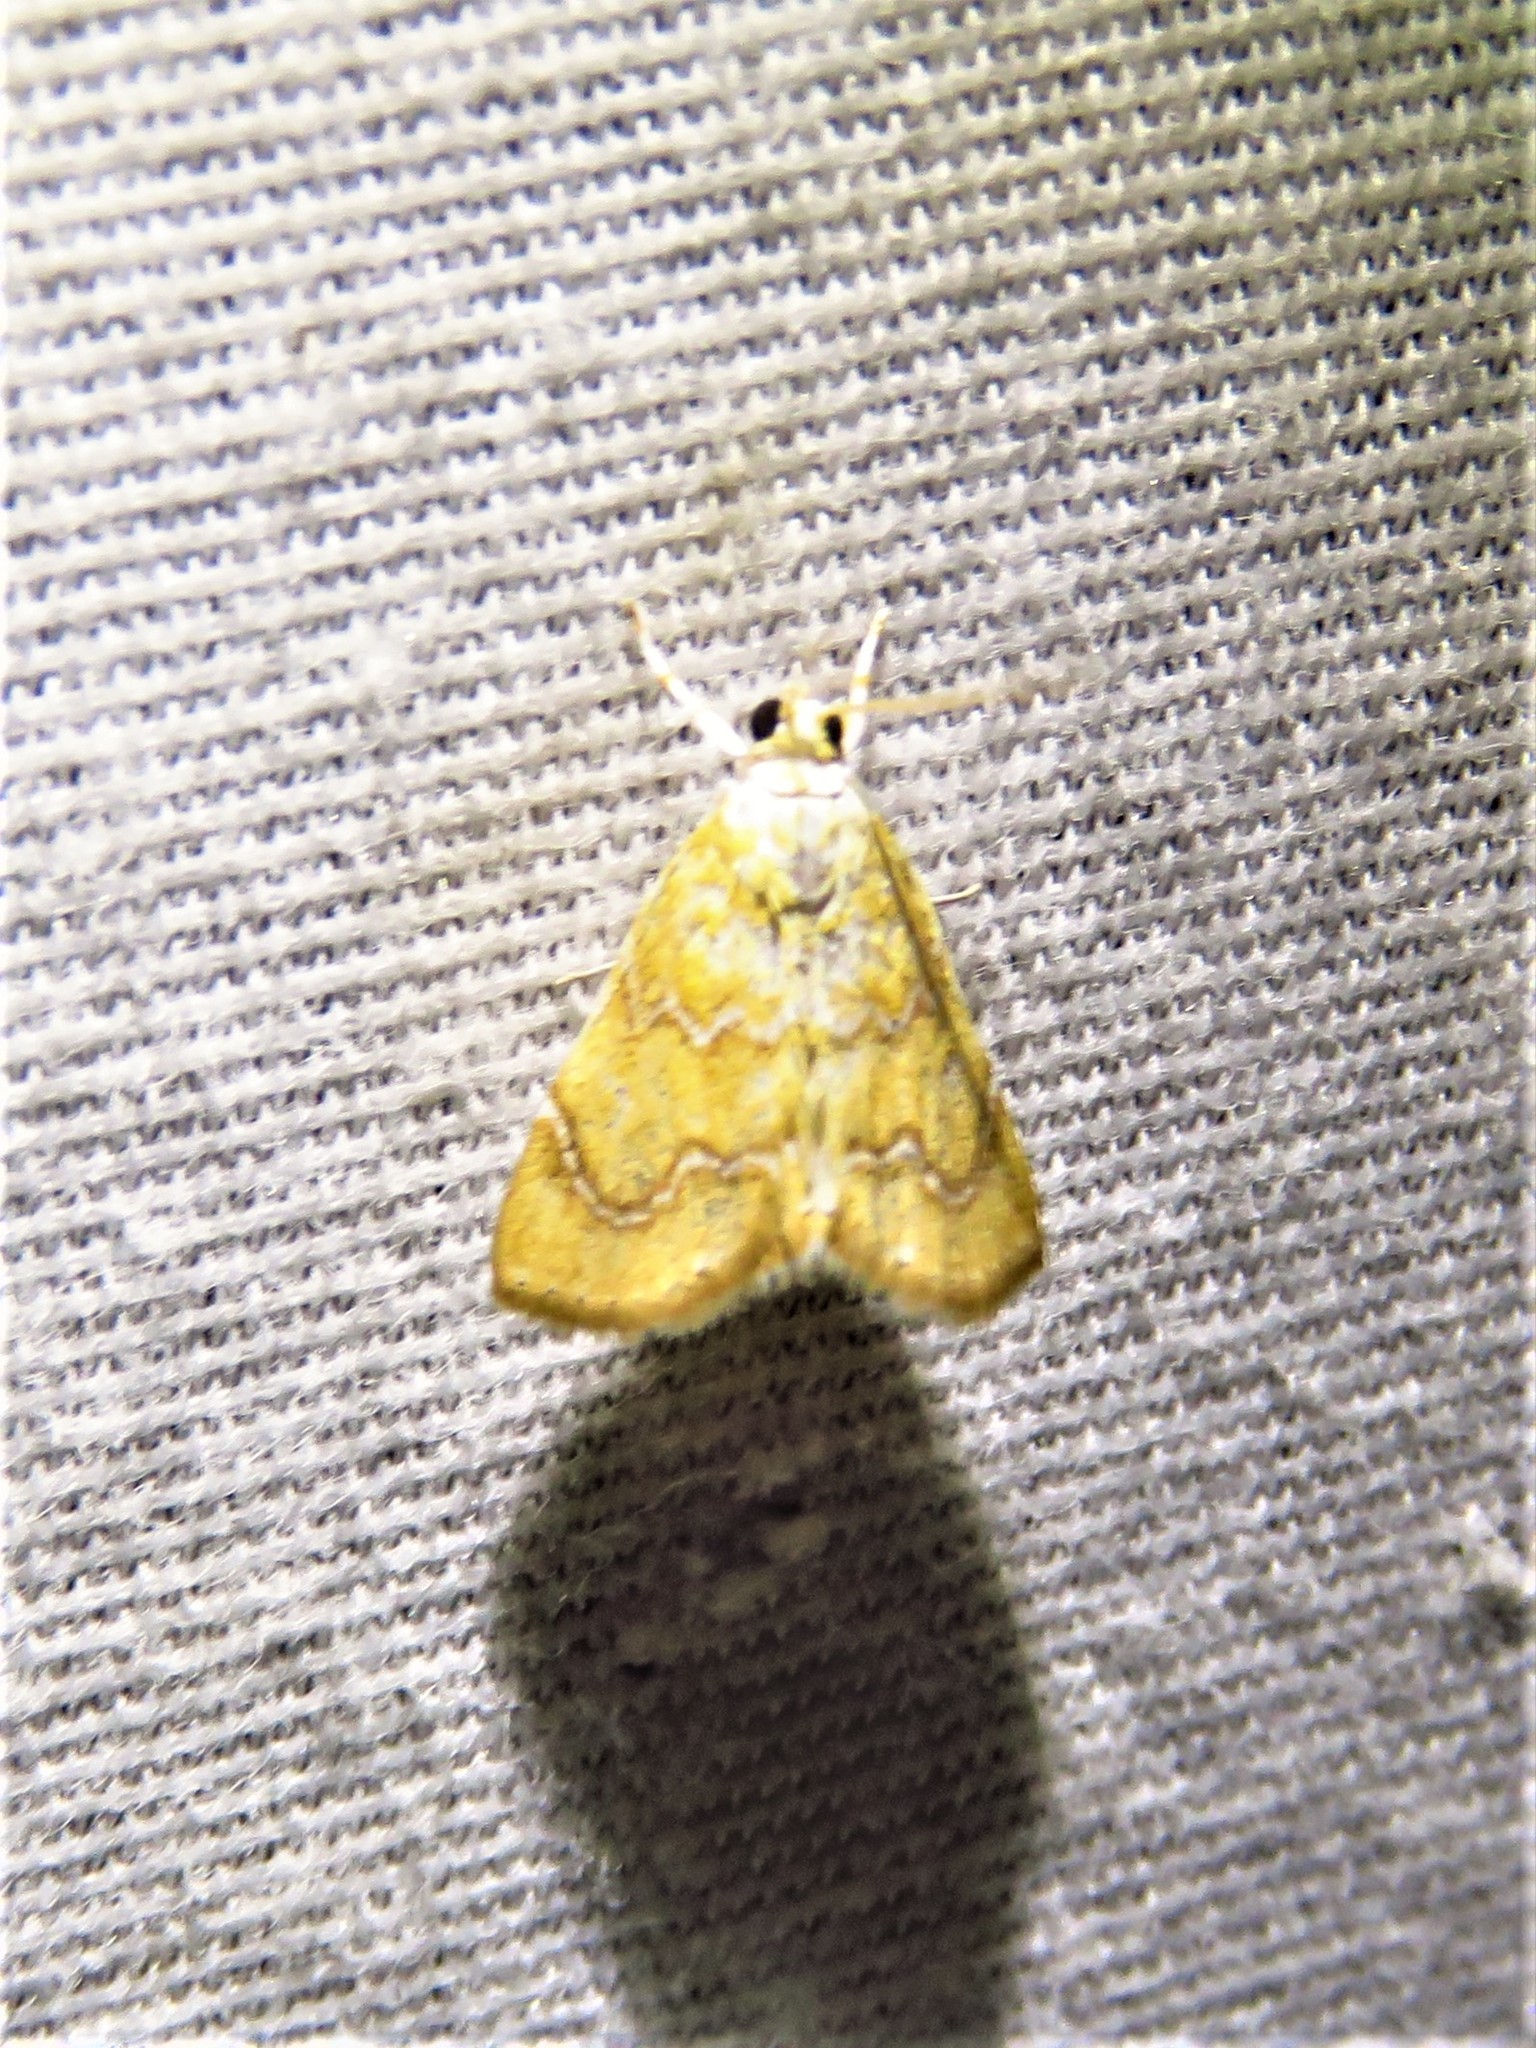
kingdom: Animalia
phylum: Arthropoda
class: Insecta
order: Lepidoptera
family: Crambidae
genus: Glaphyria
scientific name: Glaphyria sesquistrialis
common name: White-roped glaphyria
